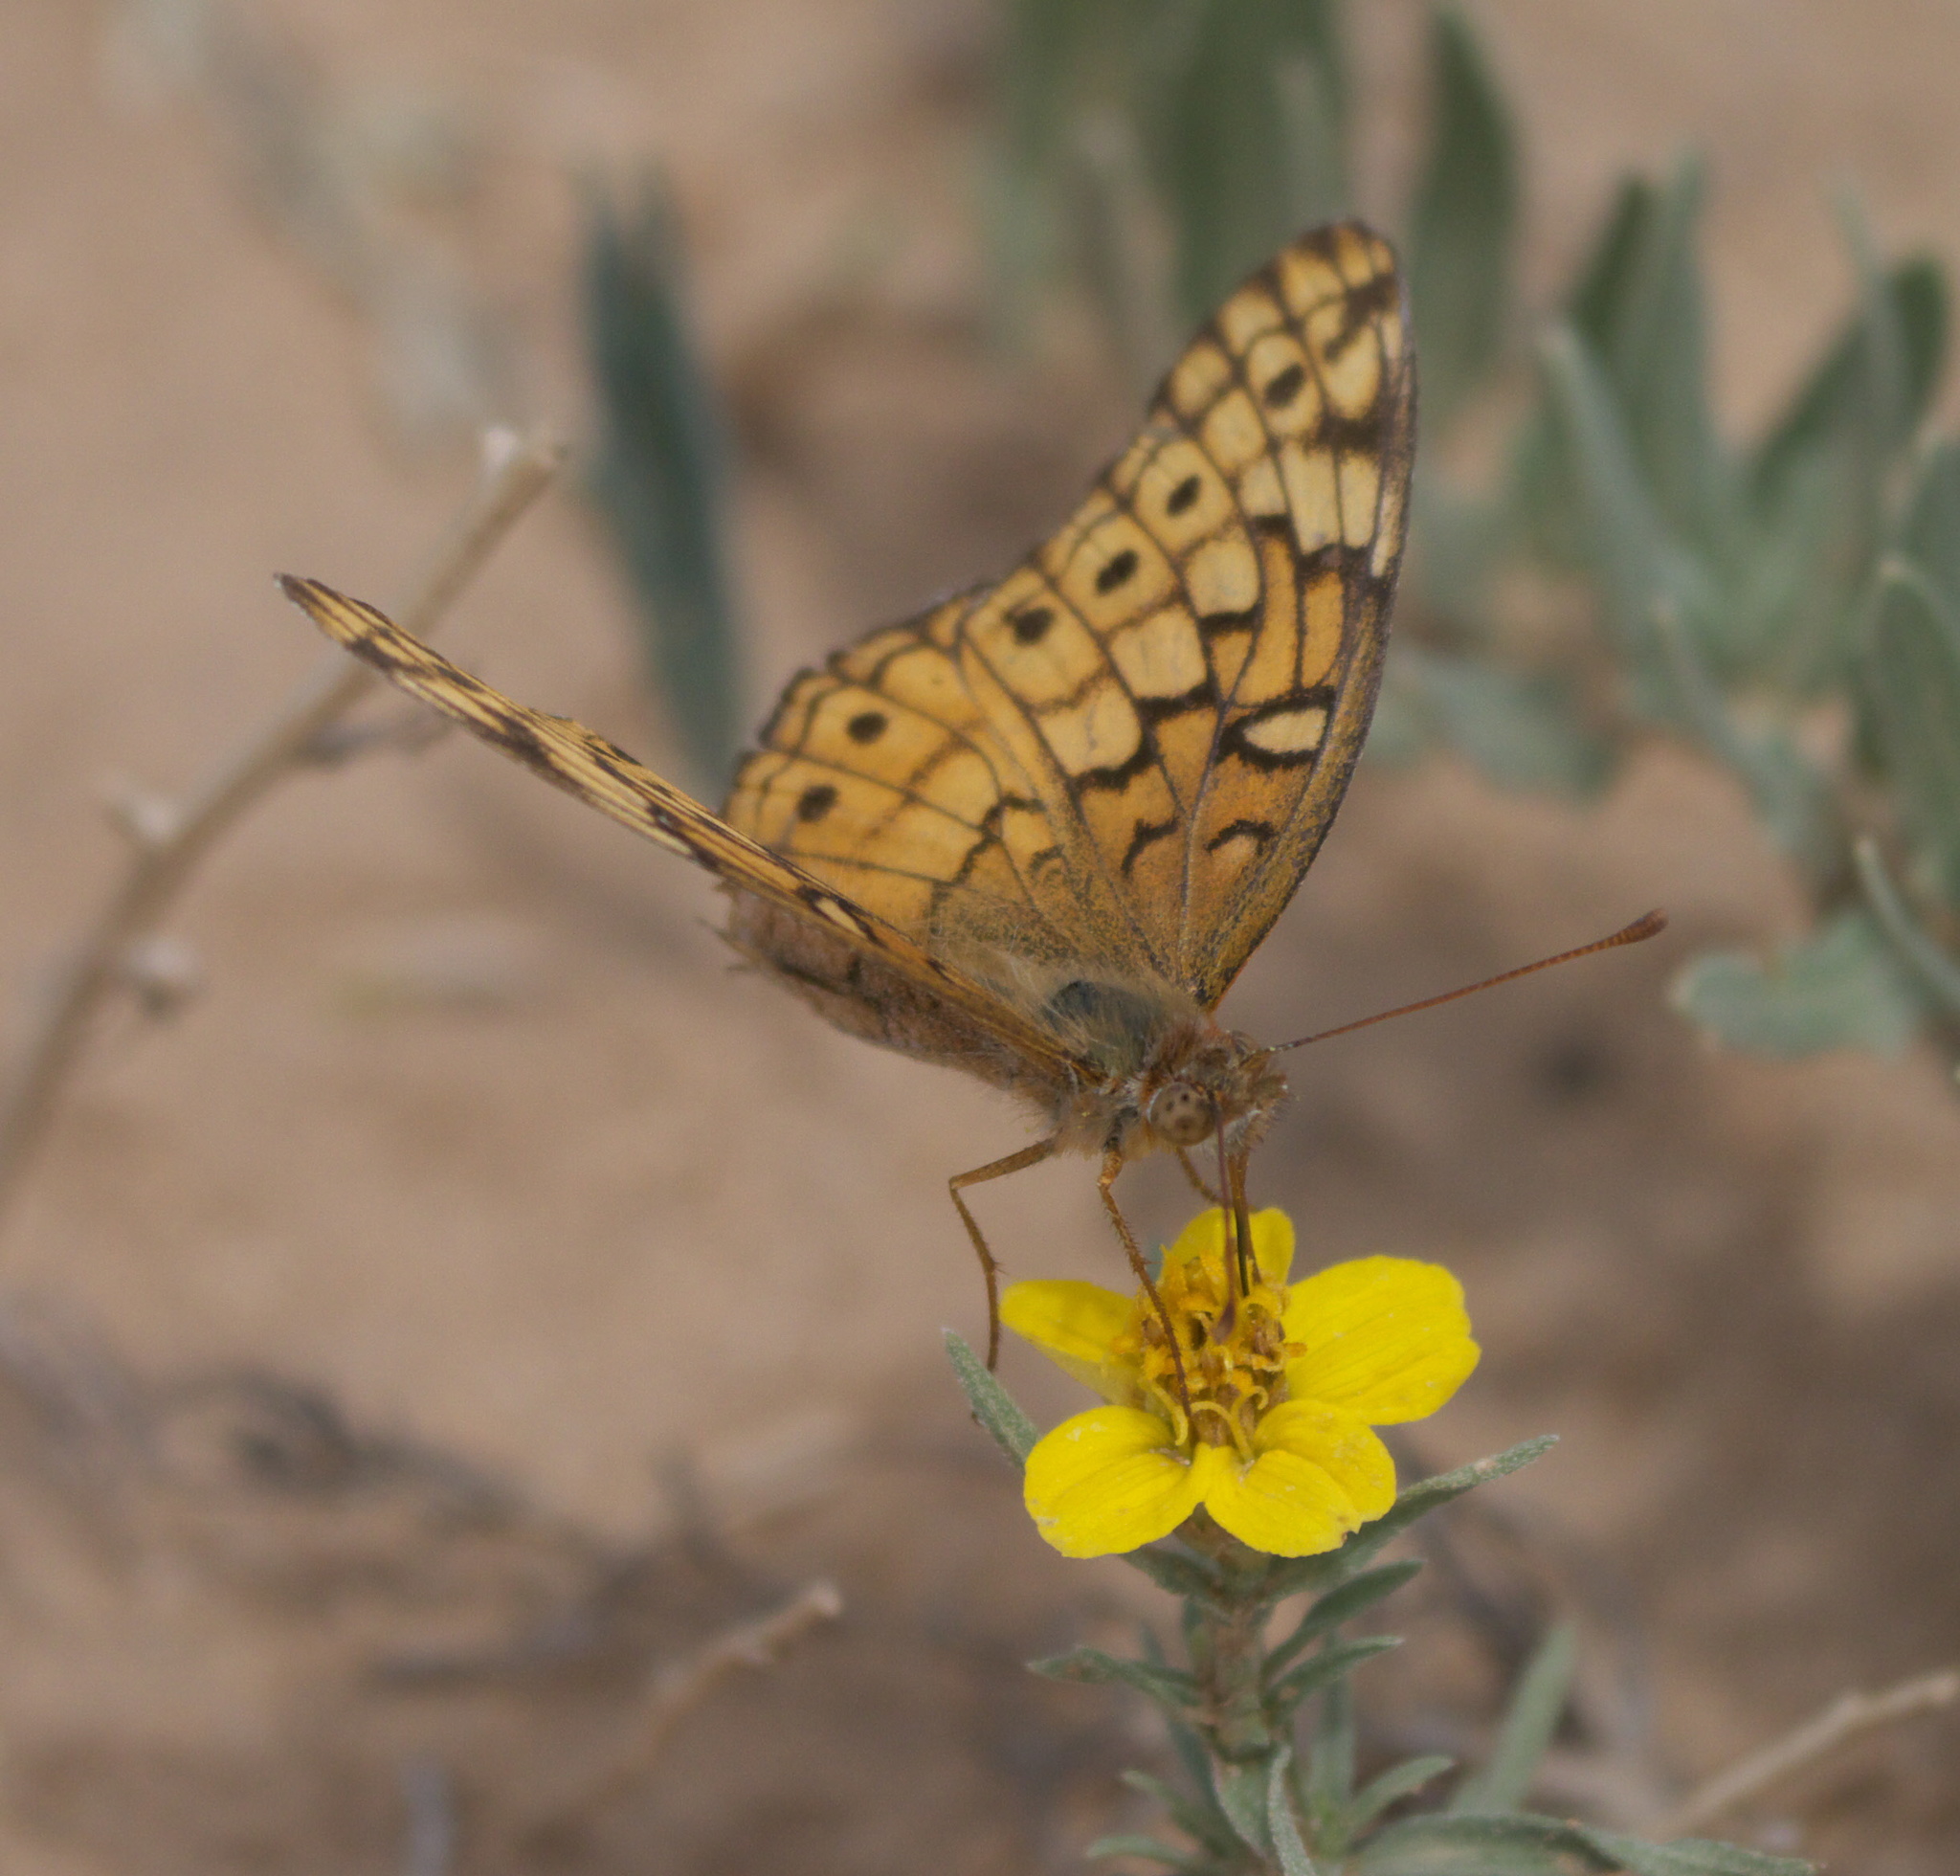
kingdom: Animalia
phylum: Arthropoda
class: Insecta
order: Lepidoptera
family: Nymphalidae
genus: Euptoieta
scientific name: Euptoieta claudia
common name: Variegated fritillary
